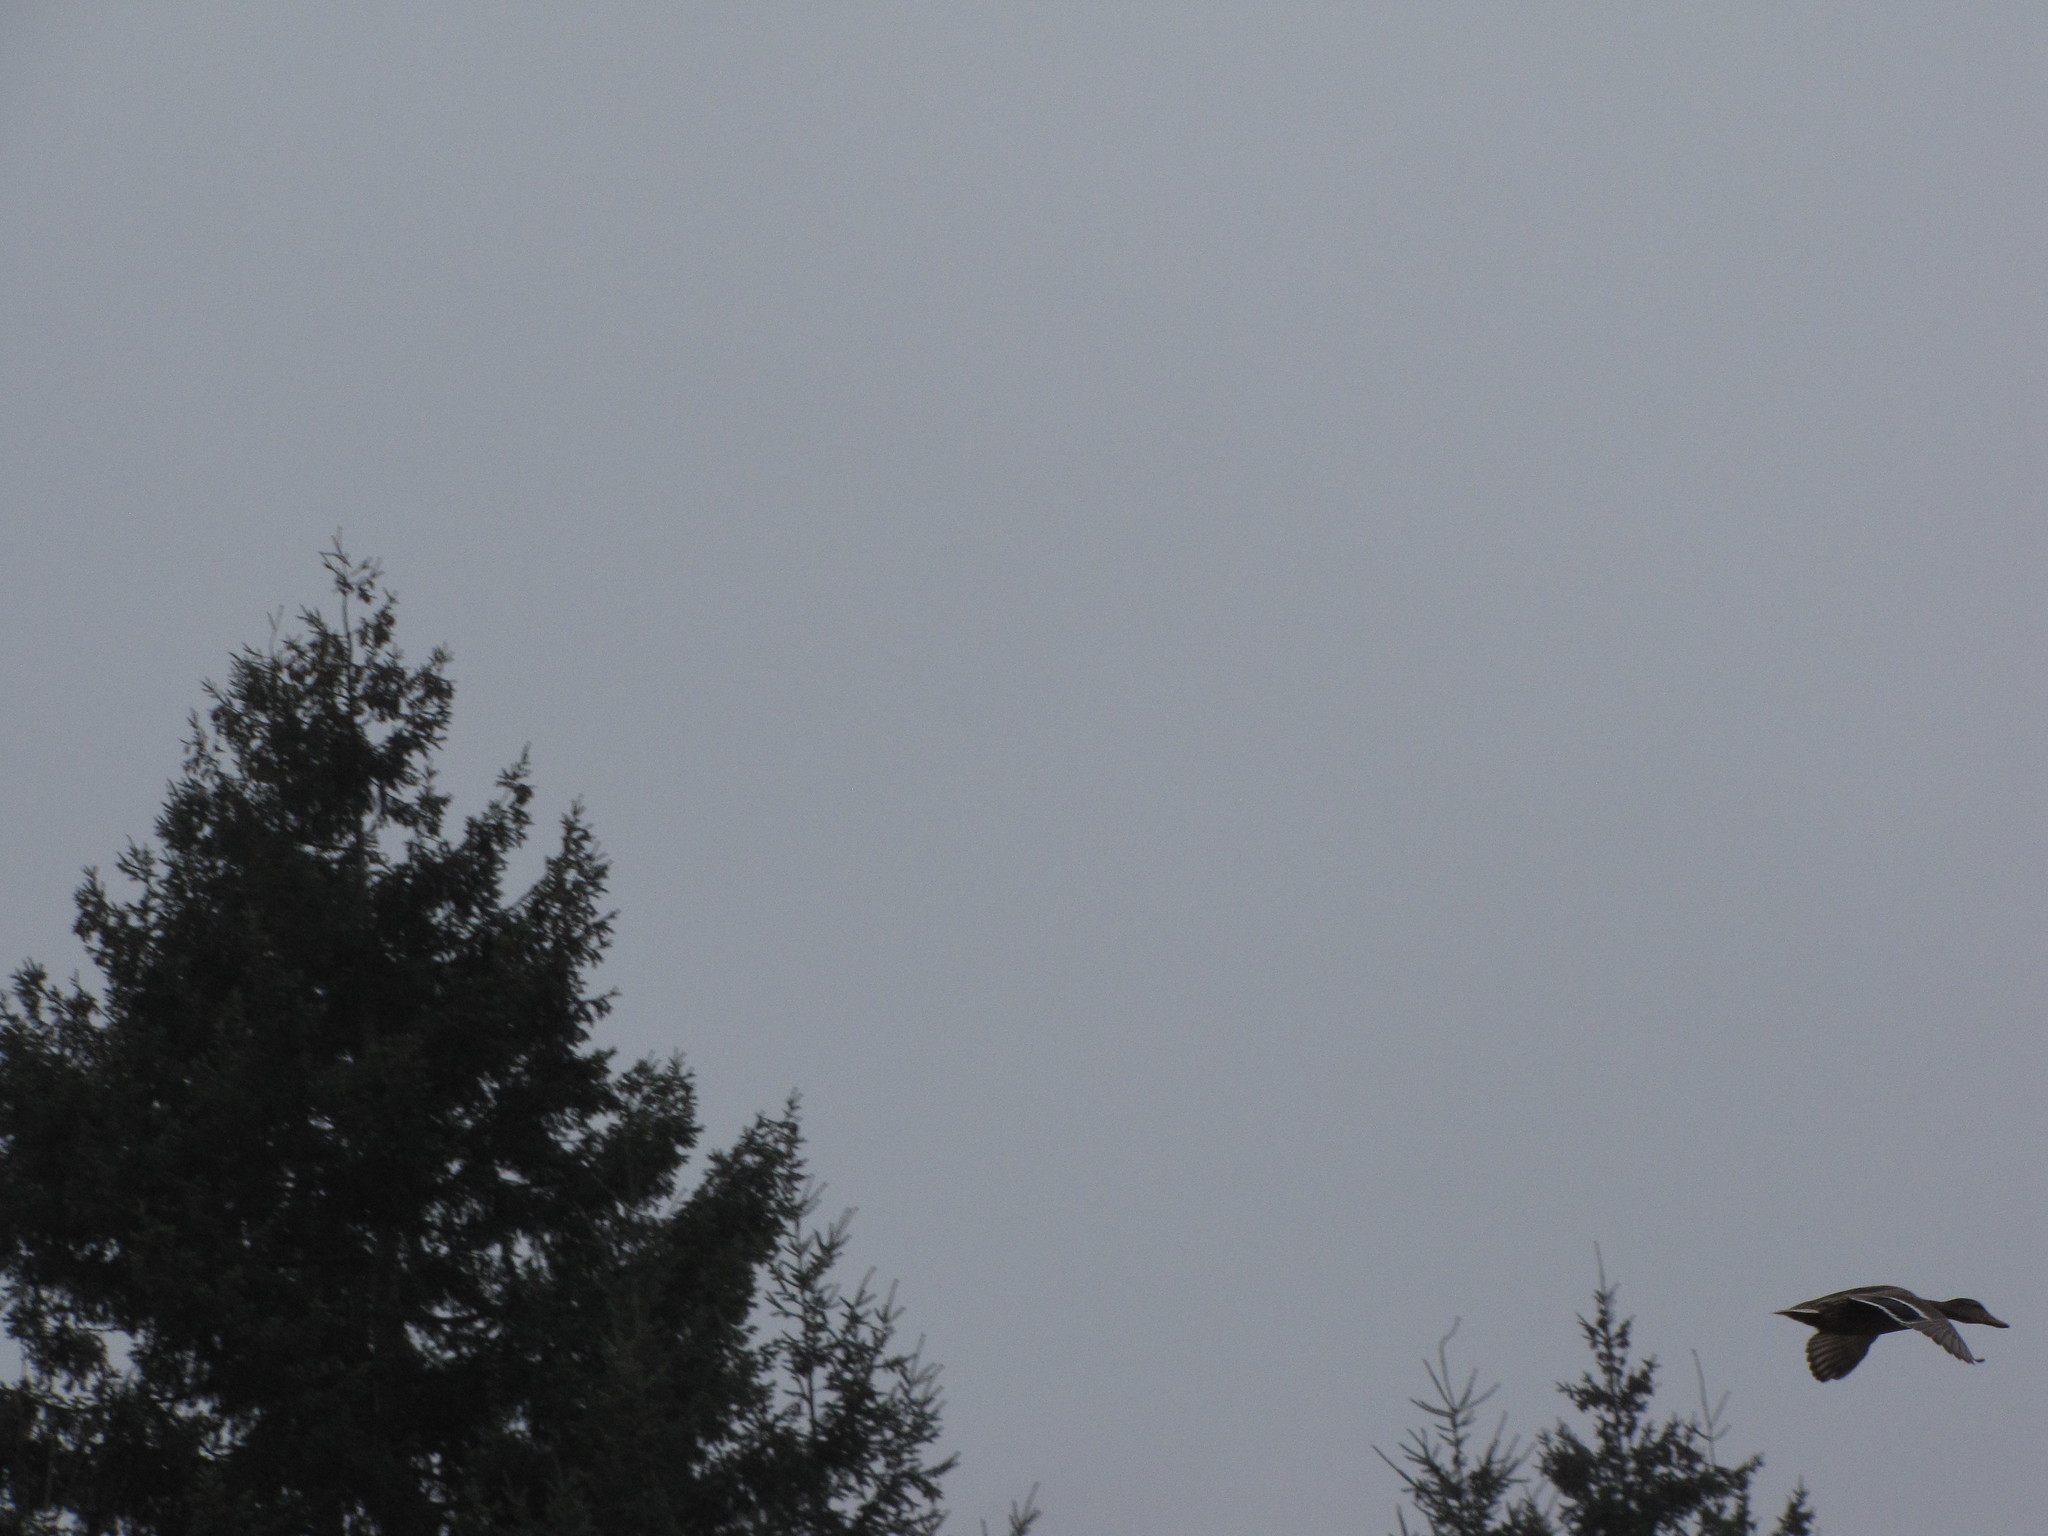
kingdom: Animalia
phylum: Chordata
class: Aves
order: Anseriformes
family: Anatidae
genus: Anas
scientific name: Anas platyrhynchos
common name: Mallard
